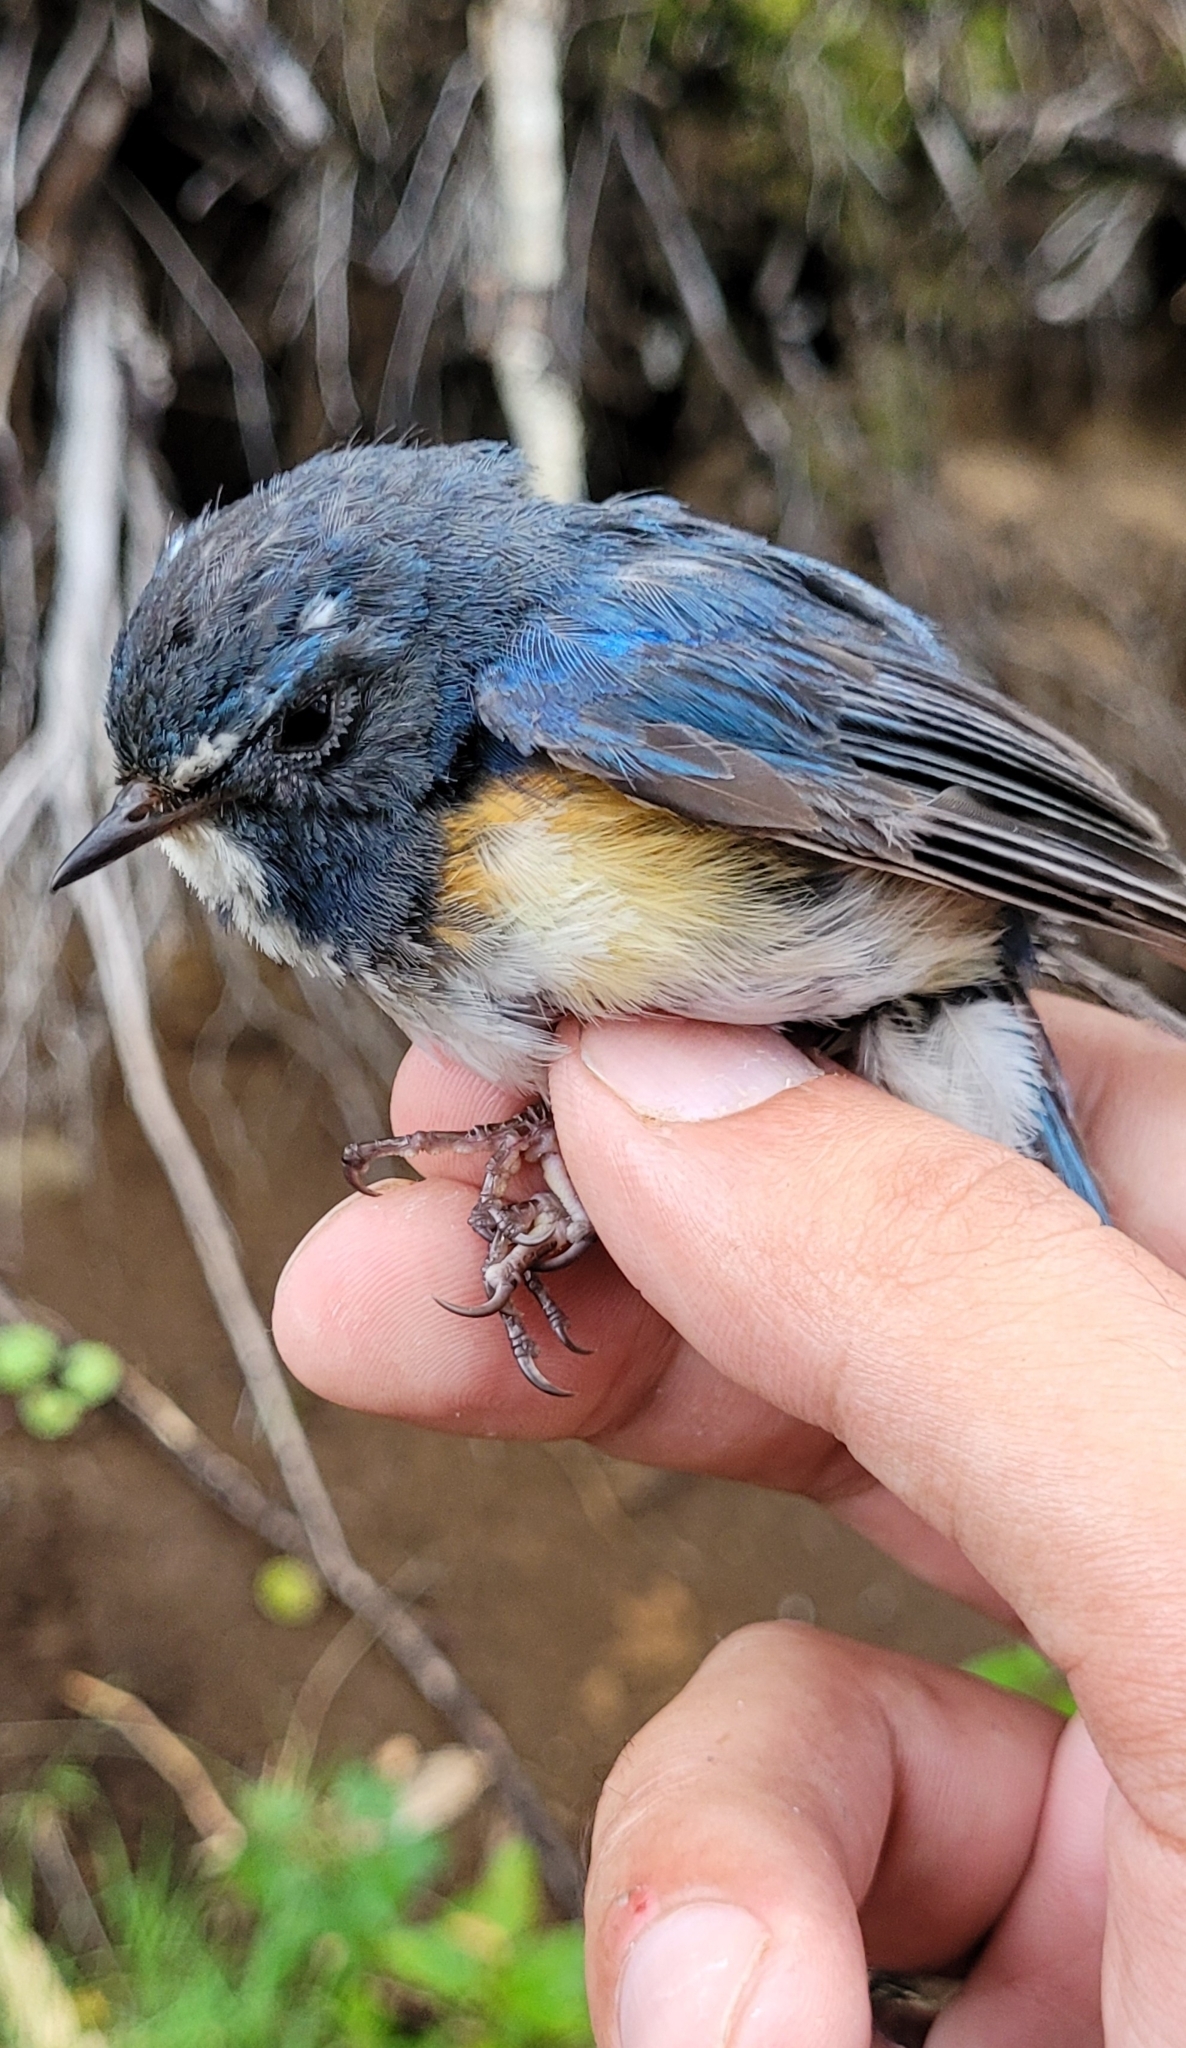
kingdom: Animalia
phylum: Chordata
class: Aves
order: Passeriformes
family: Muscicapidae
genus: Tarsiger
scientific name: Tarsiger cyanurus
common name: Red-flanked bluetail
